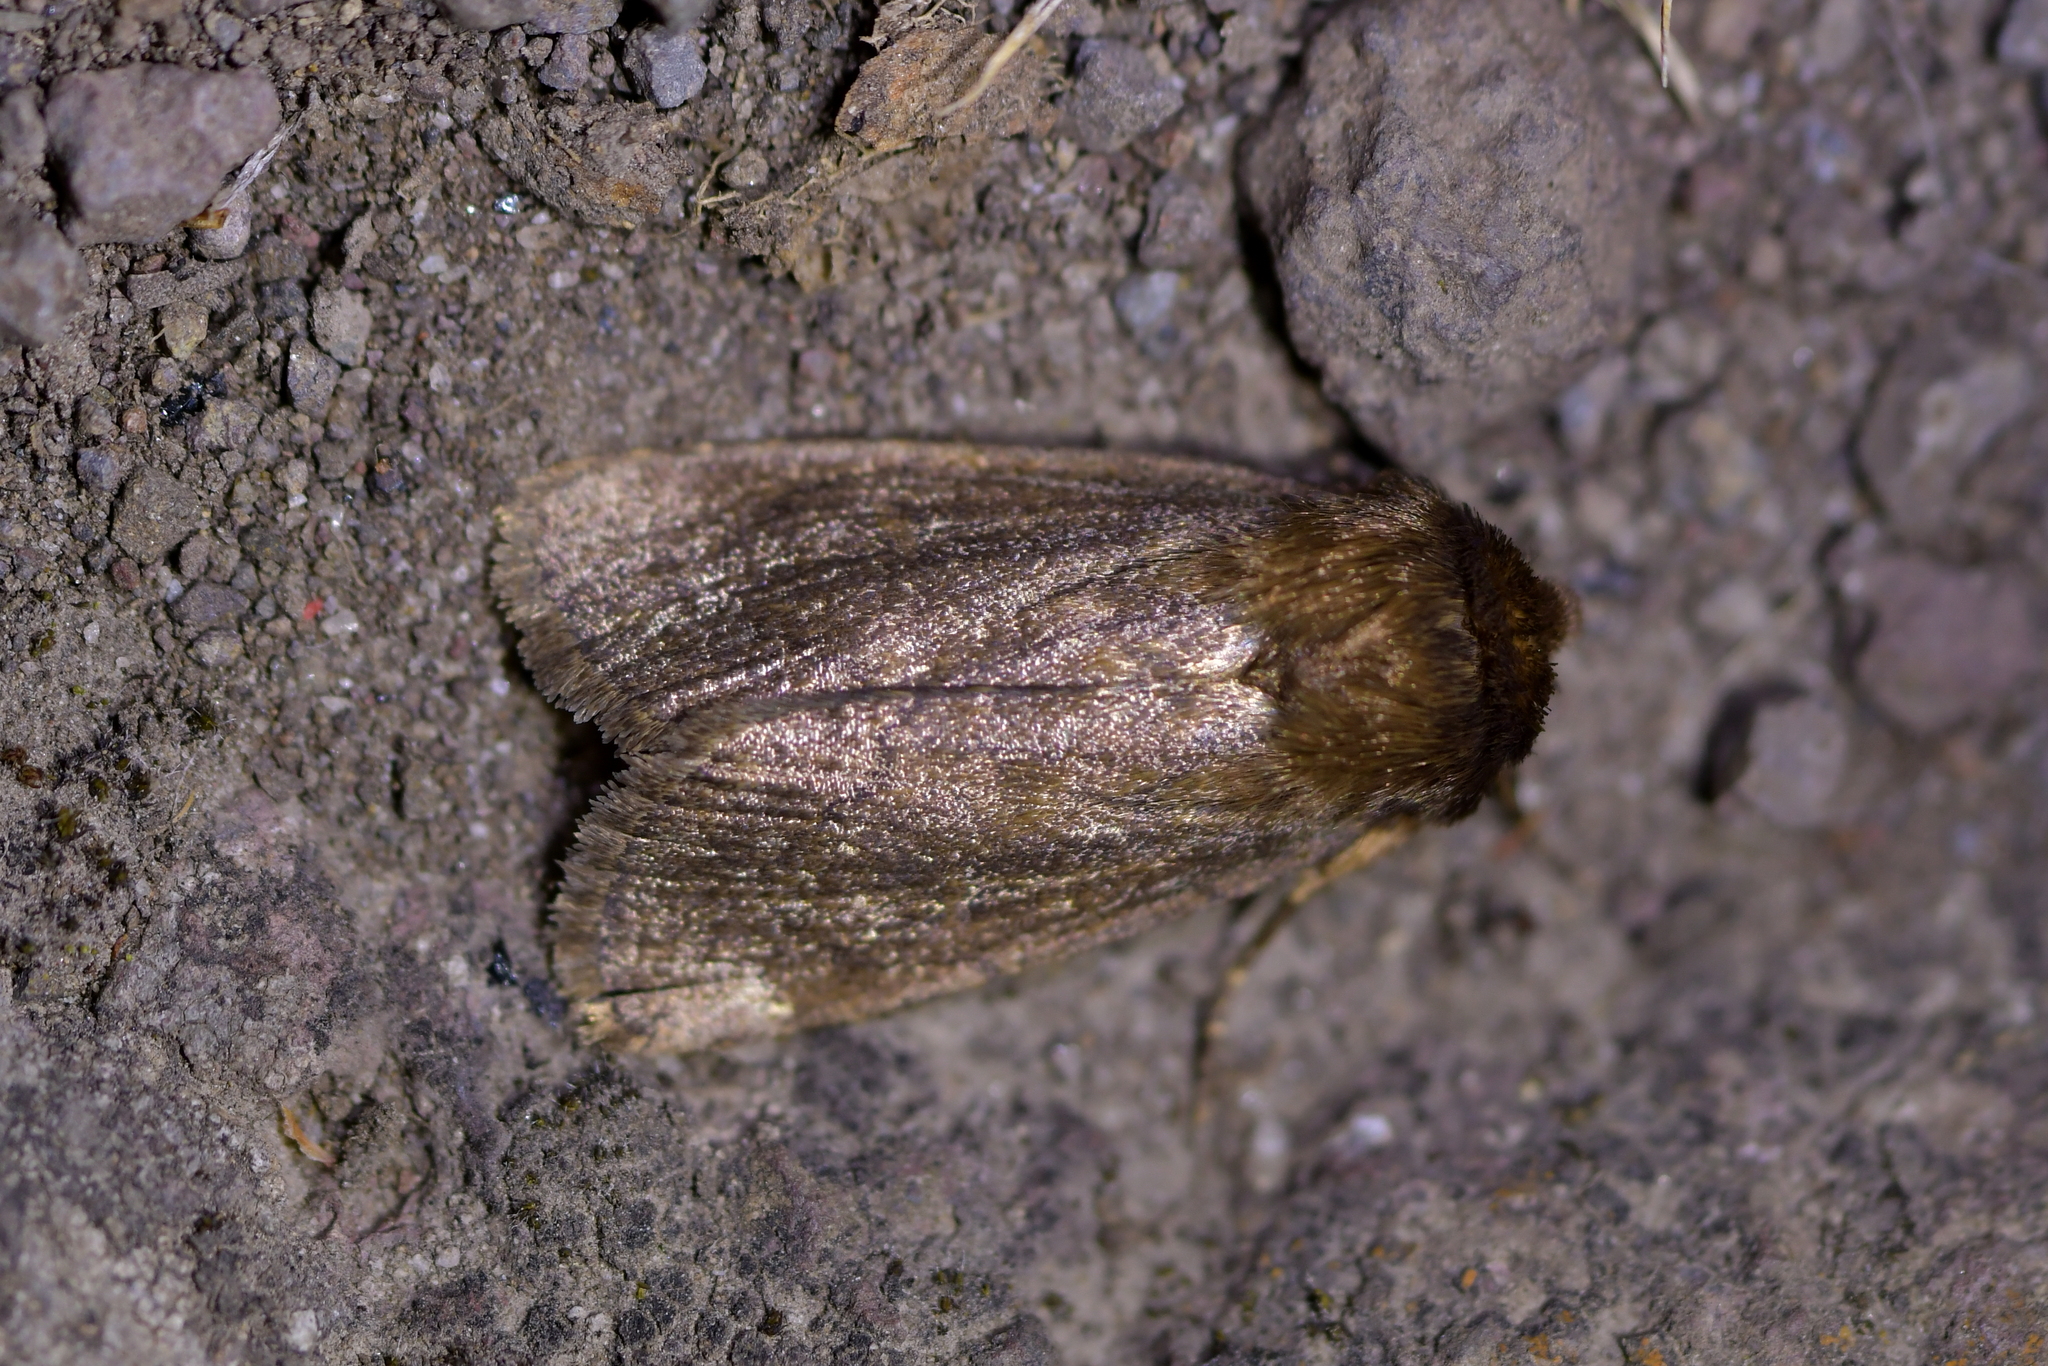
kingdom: Animalia
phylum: Arthropoda
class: Insecta
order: Lepidoptera
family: Noctuidae
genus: Bityla
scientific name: Bityla defigurata
